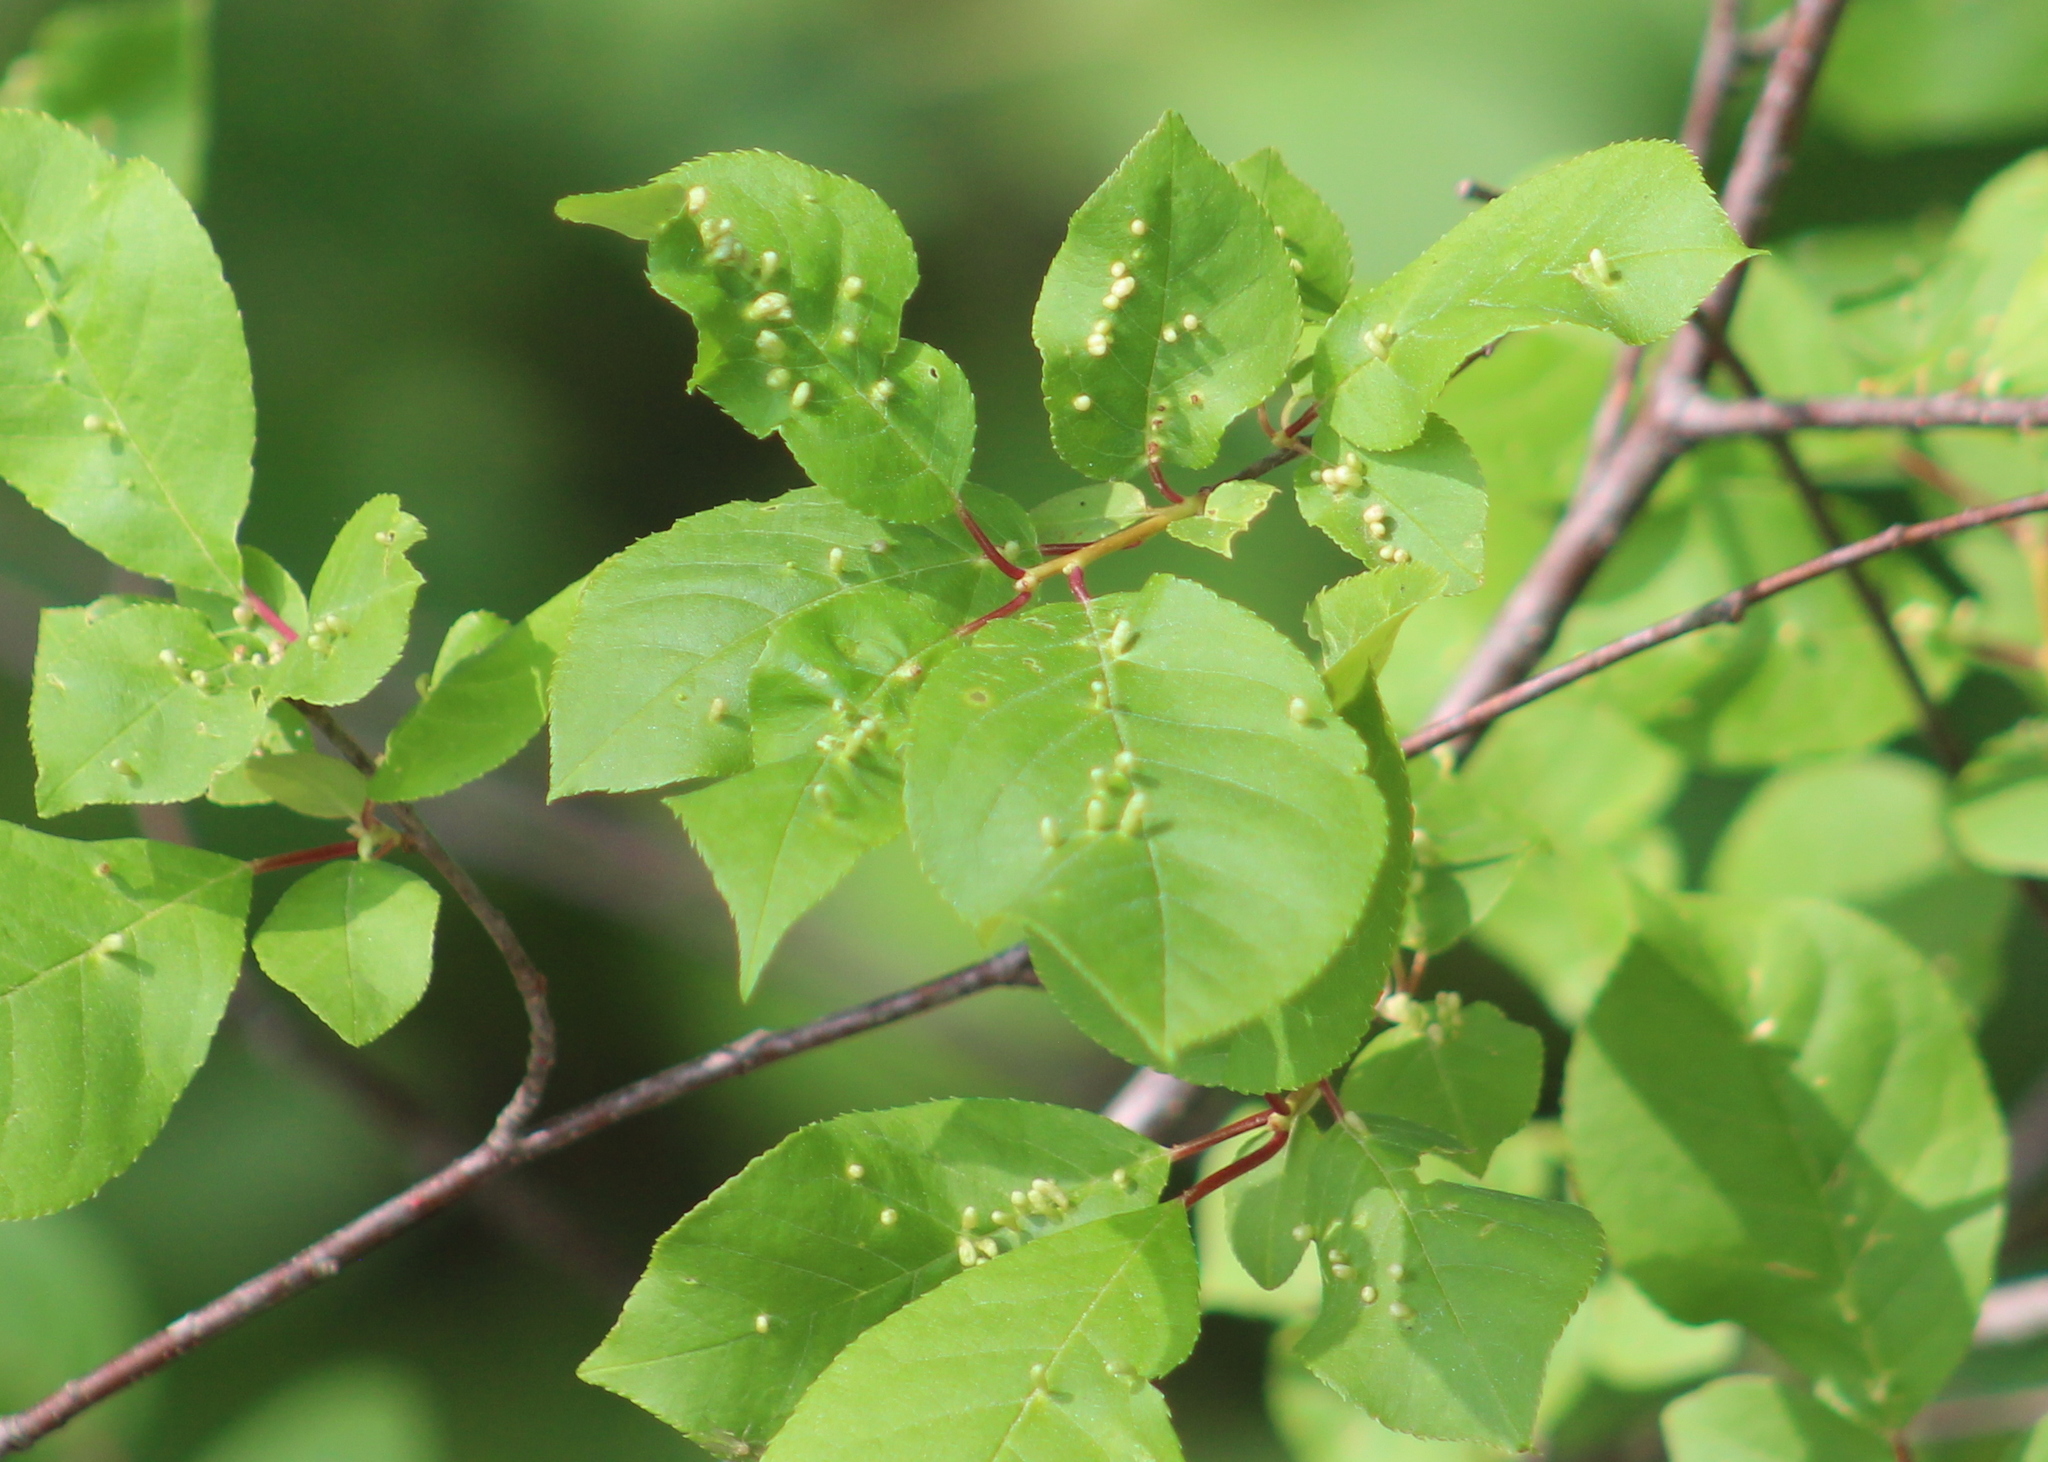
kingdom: Animalia
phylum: Arthropoda
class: Arachnida
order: Trombidiformes
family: Eriophyidae
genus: Eriophyes
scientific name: Eriophyes emarginatae
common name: Plum leaf gall mite
